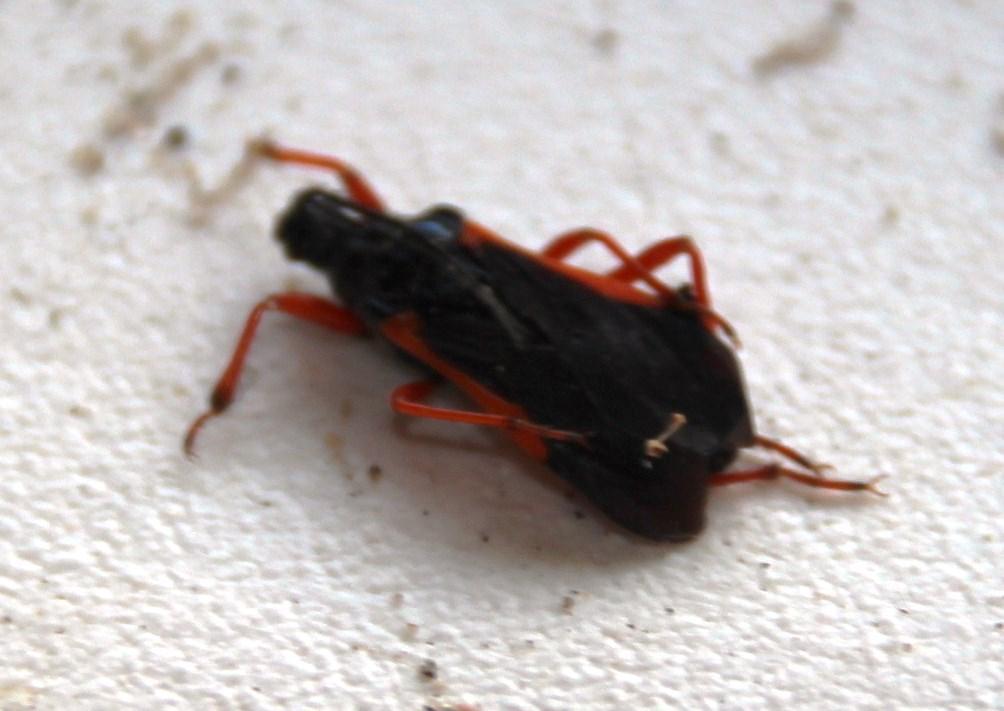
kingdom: Animalia
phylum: Arthropoda
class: Insecta
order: Hemiptera
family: Reduviidae
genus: Cleptria
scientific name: Cleptria rufipes
